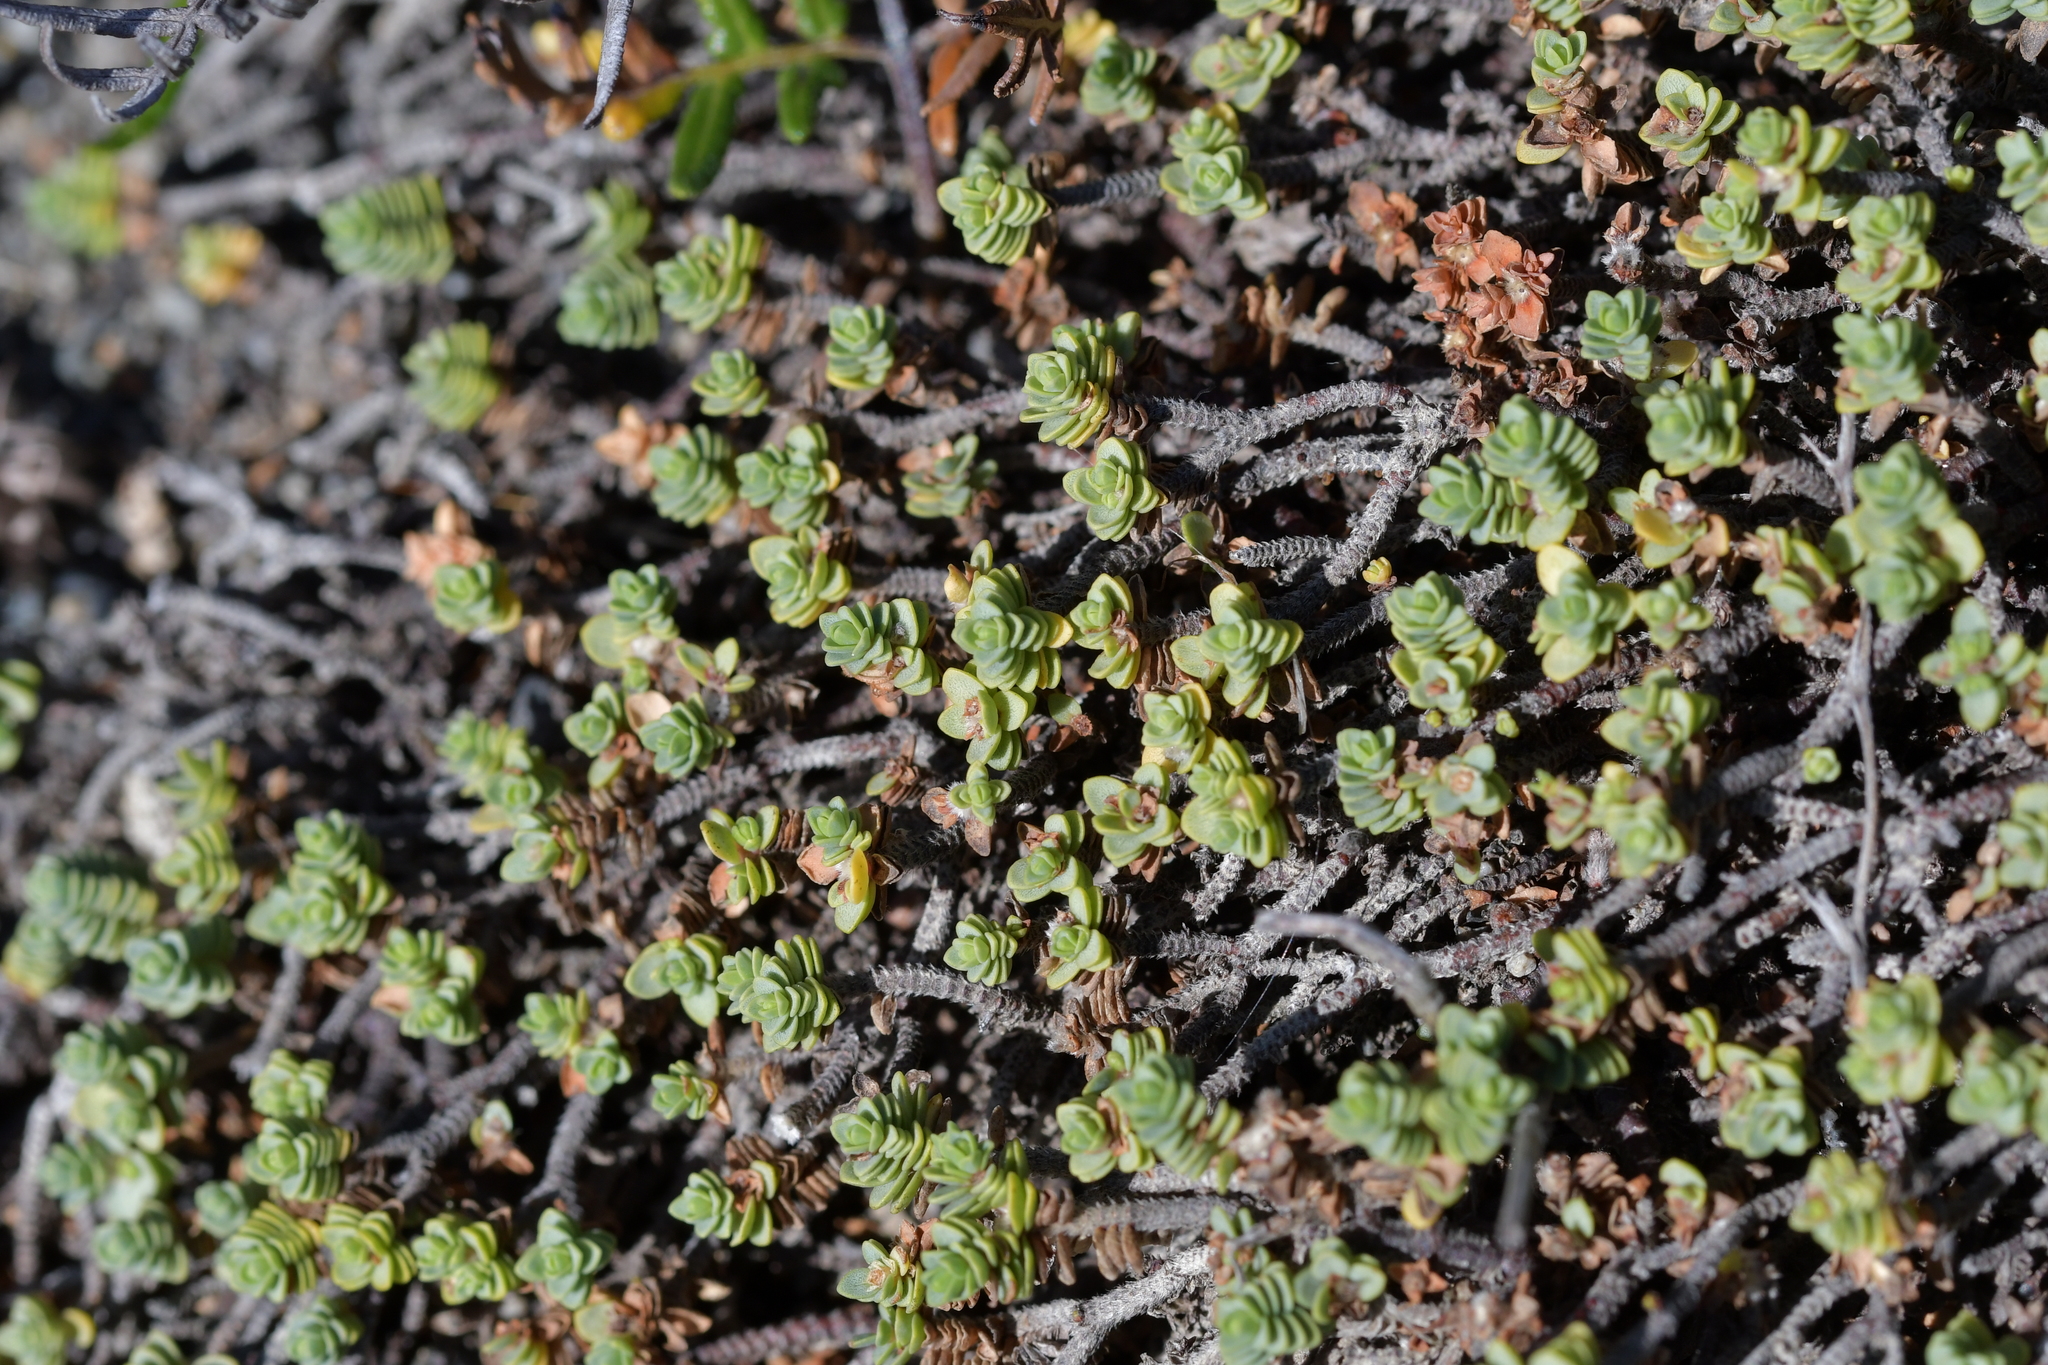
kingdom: Plantae
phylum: Tracheophyta
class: Magnoliopsida
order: Malvales
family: Thymelaeaceae
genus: Pimelea
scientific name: Pimelea carnosa
